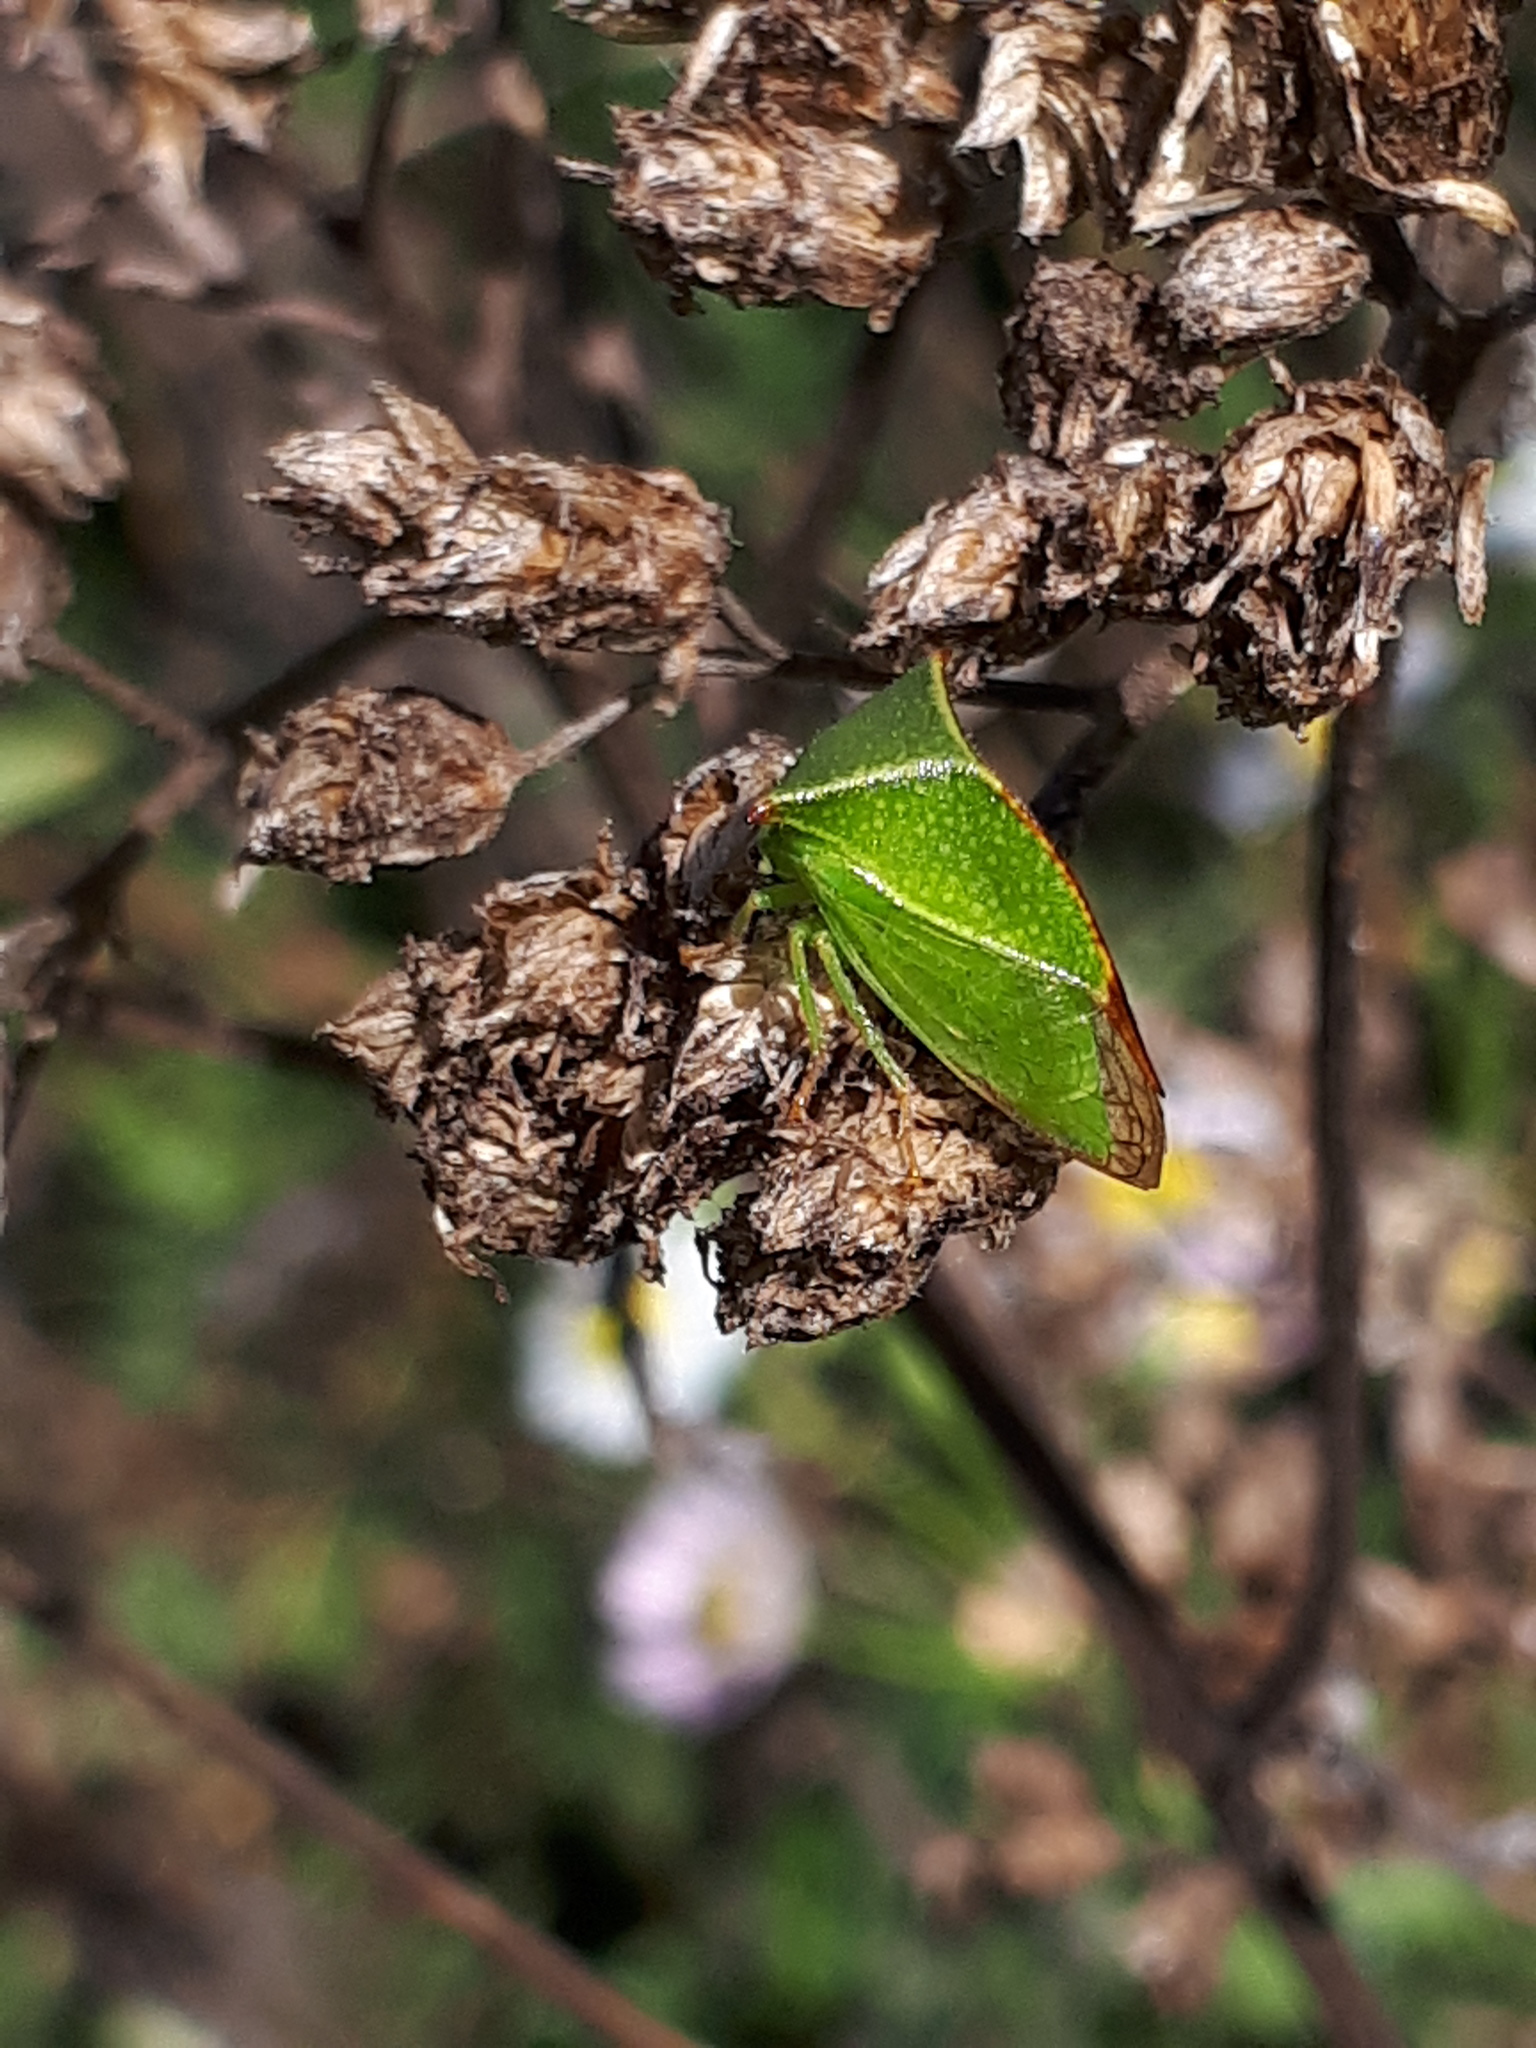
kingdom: Animalia
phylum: Arthropoda
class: Insecta
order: Hemiptera
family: Membracidae
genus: Stictocephala
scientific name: Stictocephala bisonia
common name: American buffalo treehopper
